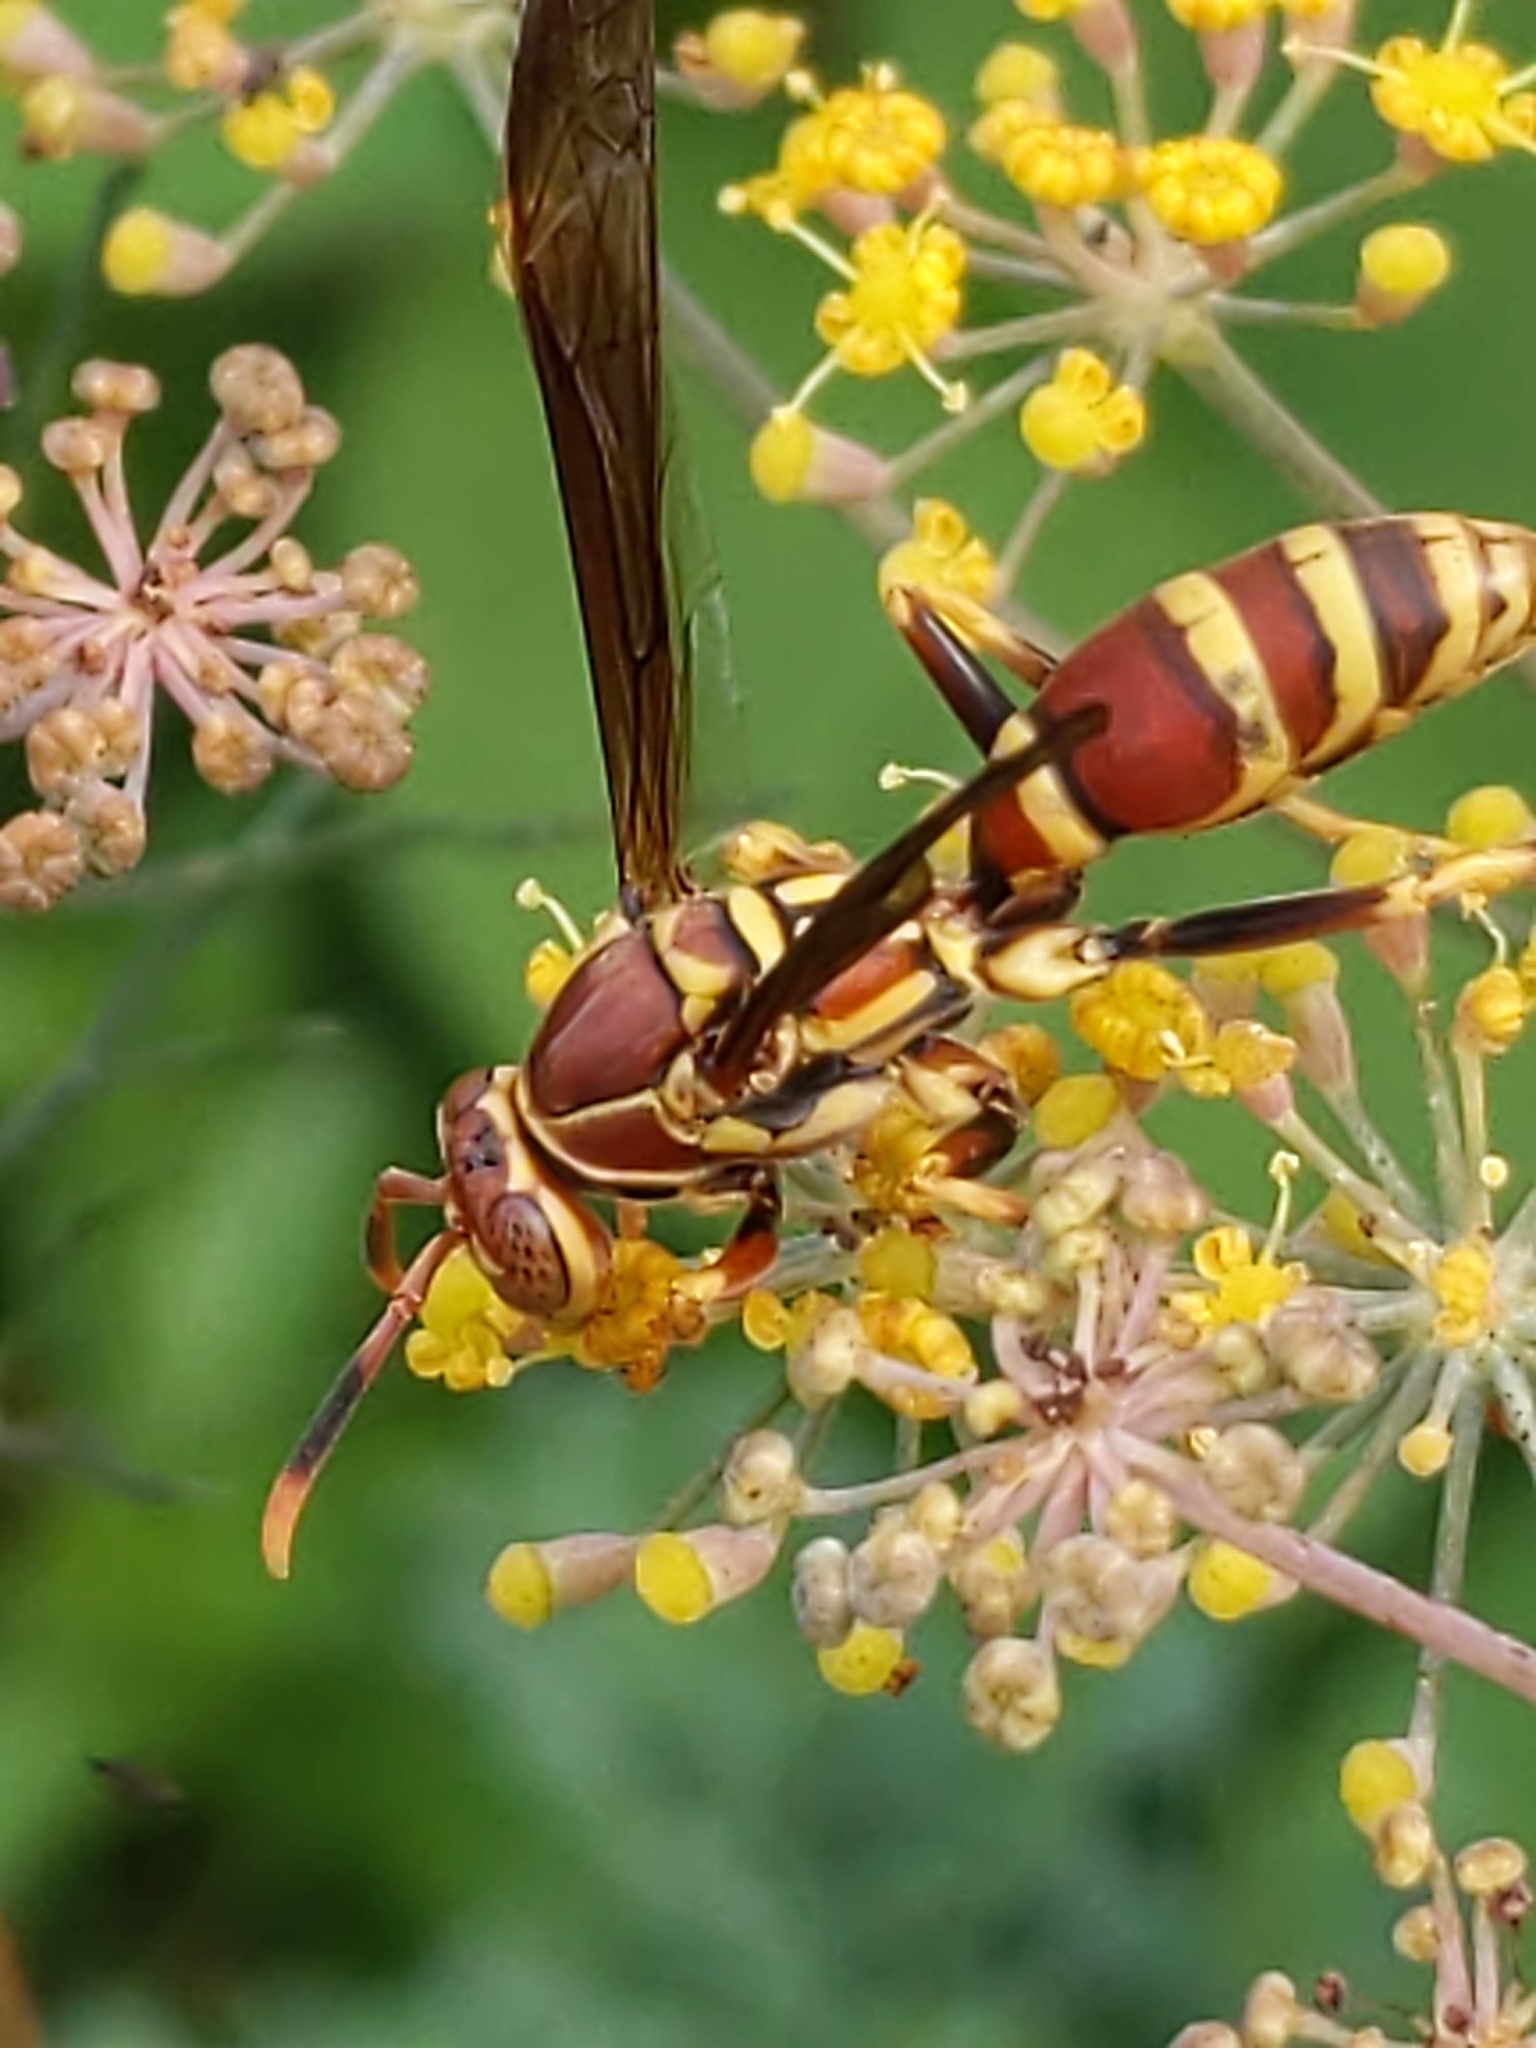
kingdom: Animalia
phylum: Arthropoda
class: Insecta
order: Hymenoptera
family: Eumenidae
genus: Polistes
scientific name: Polistes exclamans
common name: Paper wasp
